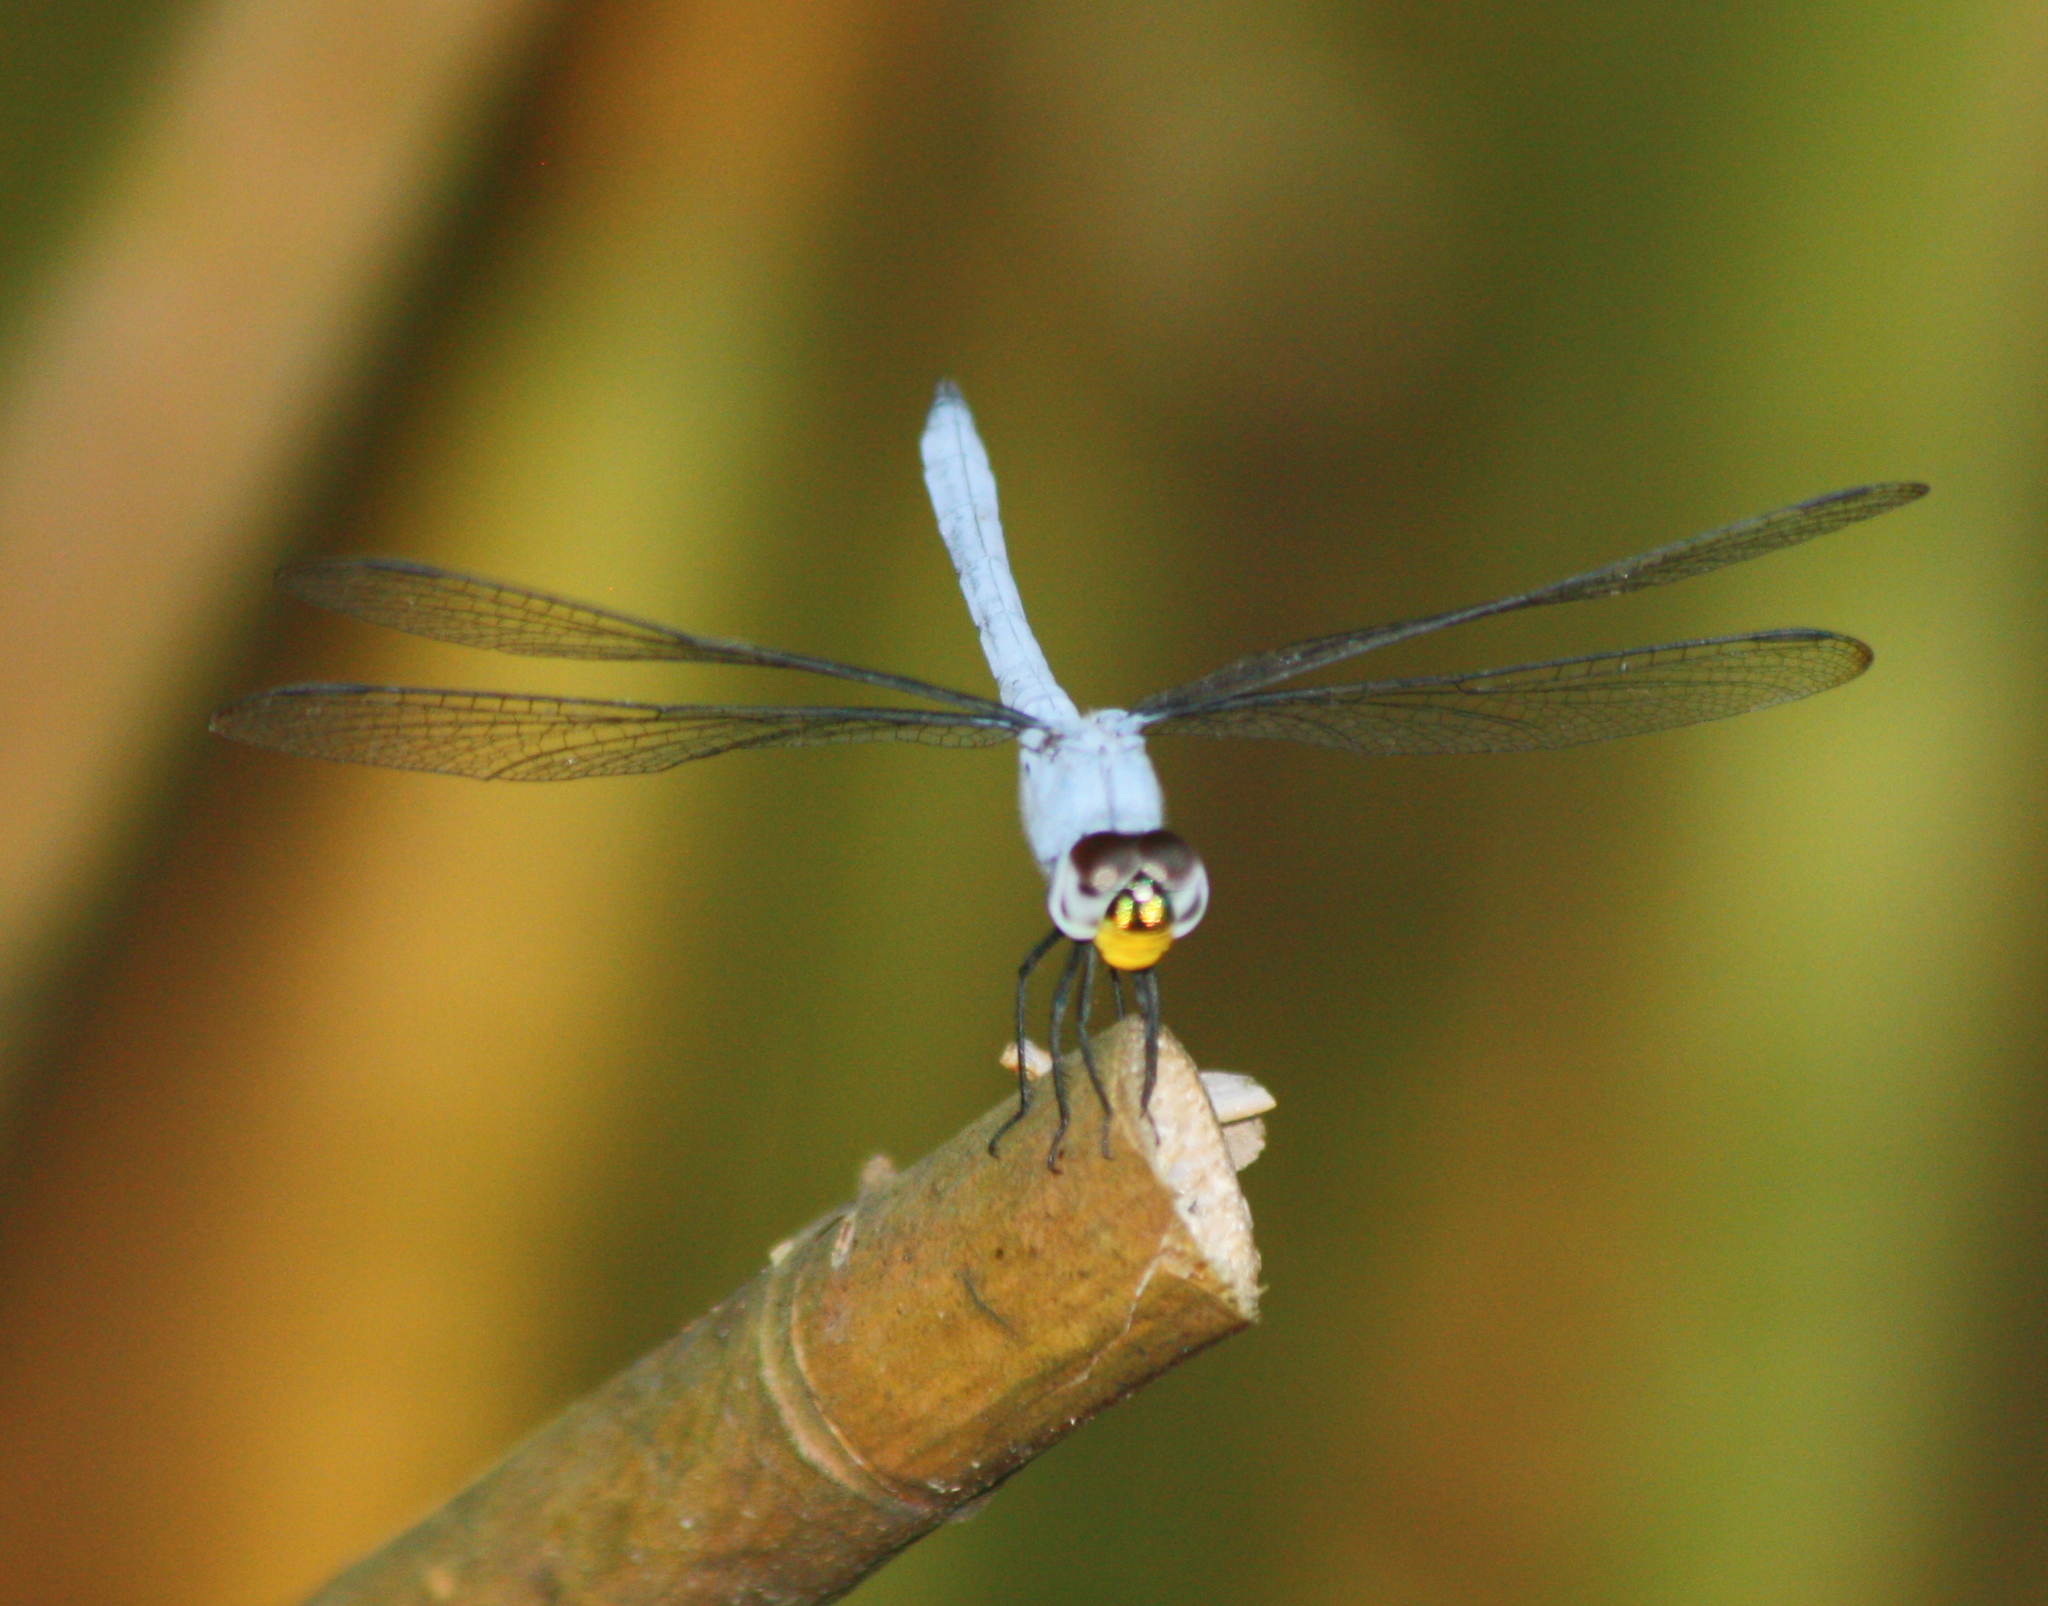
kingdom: Animalia
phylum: Arthropoda
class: Insecta
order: Odonata
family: Libellulidae
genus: Chalcostephia
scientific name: Chalcostephia flavifrons
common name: Inspector
